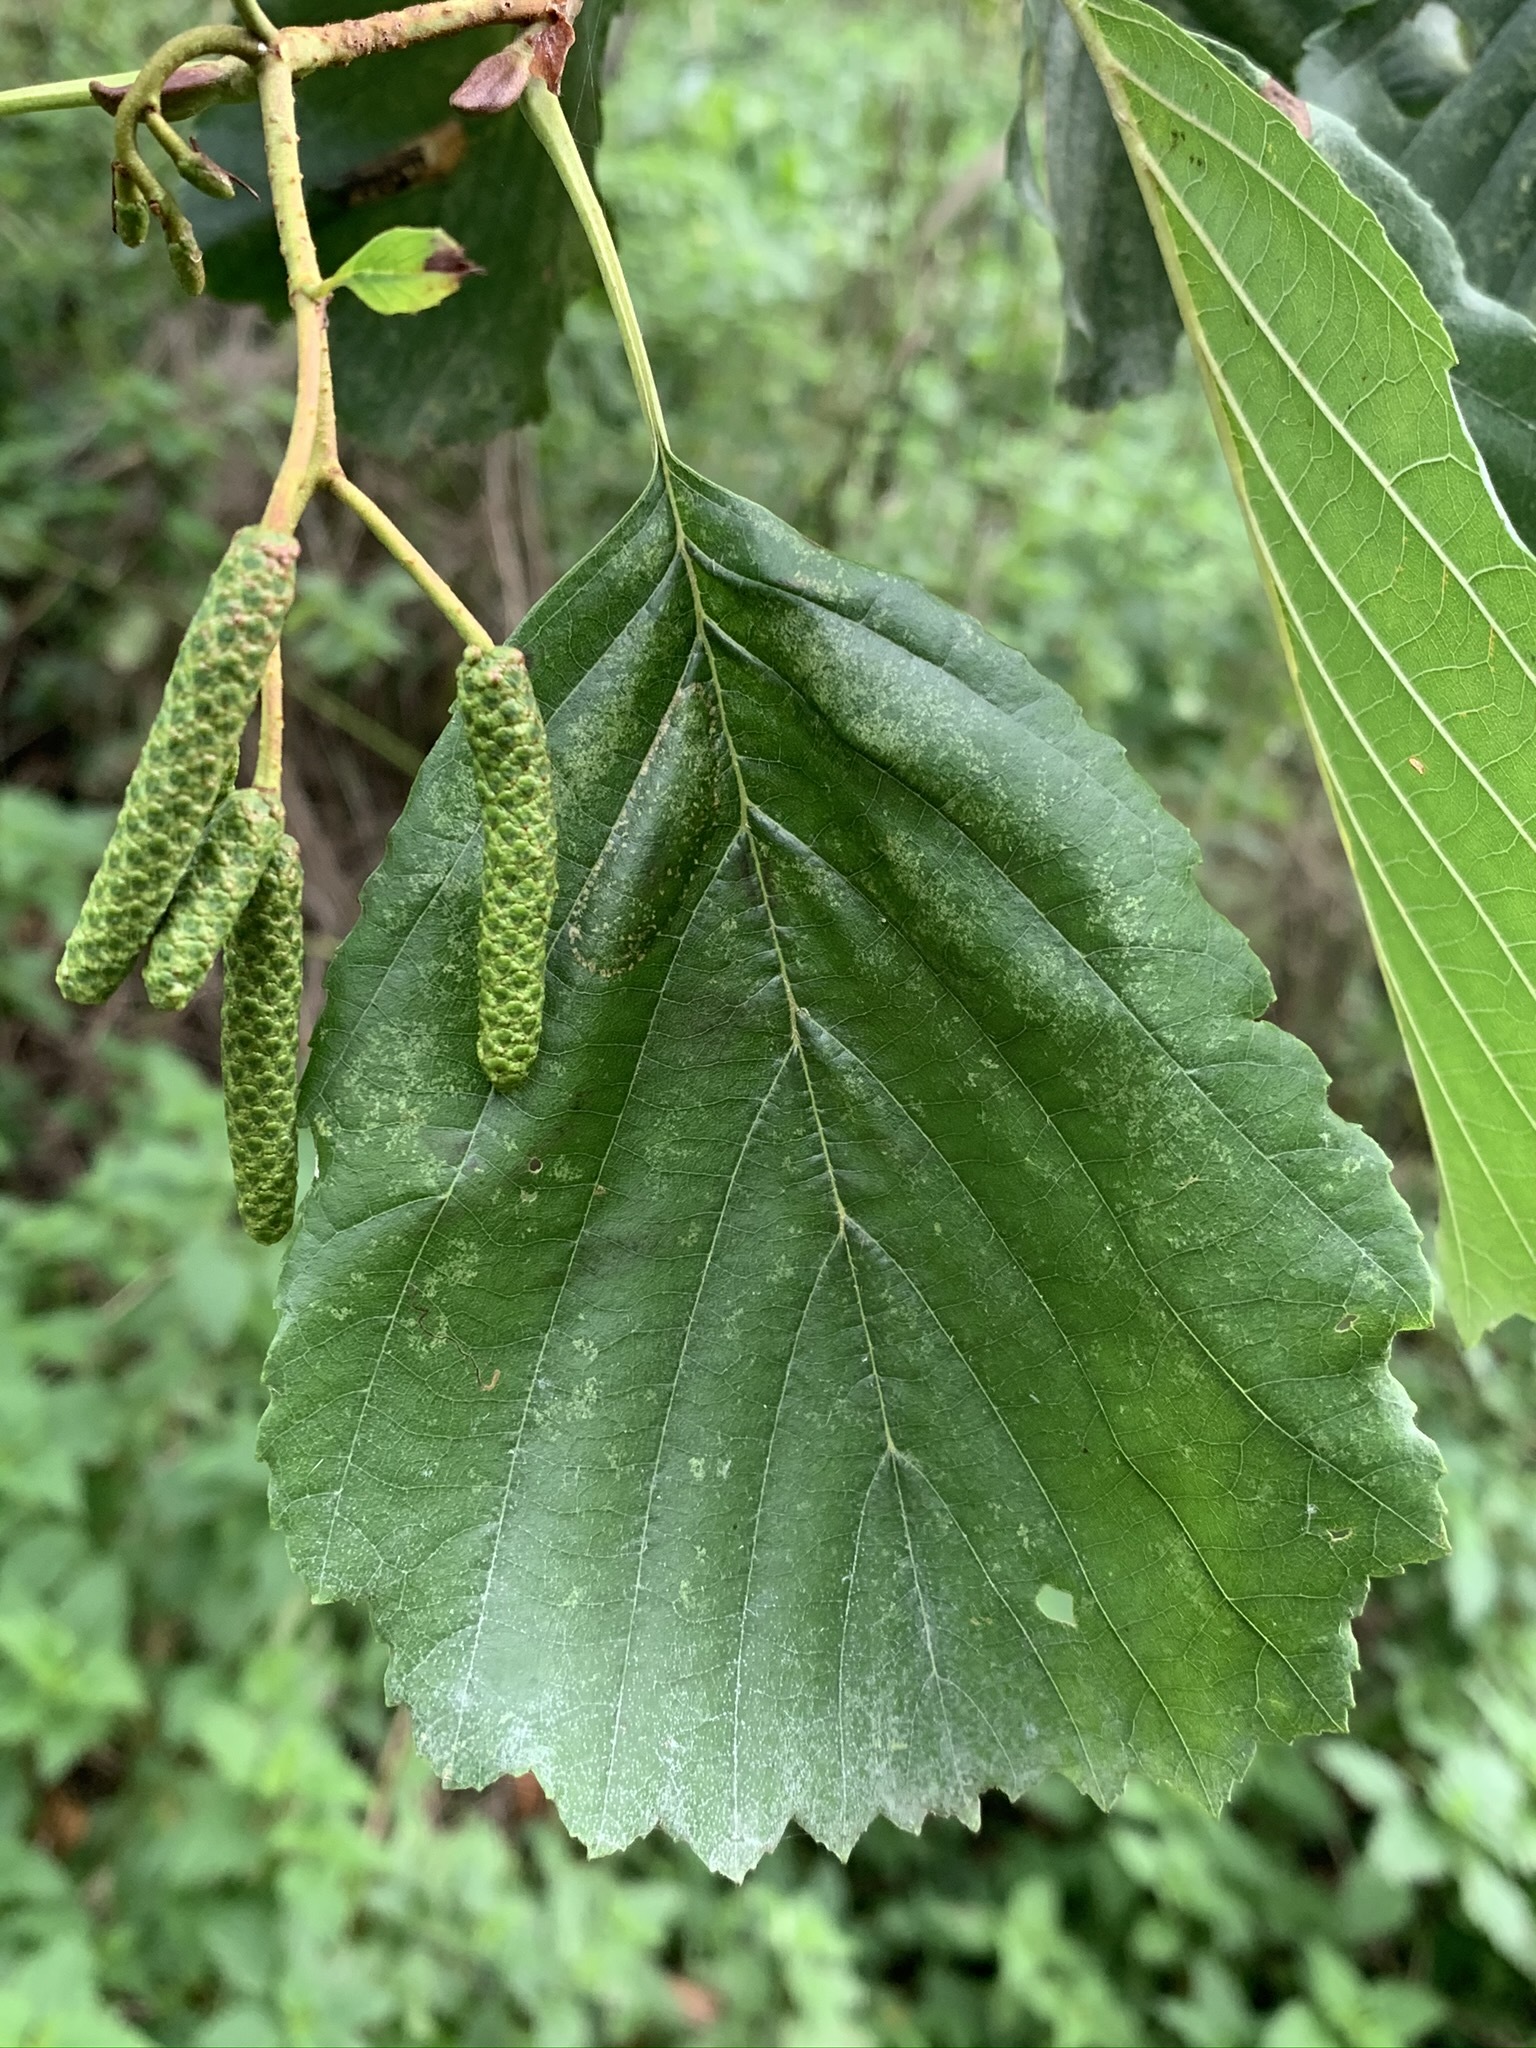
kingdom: Plantae
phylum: Tracheophyta
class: Magnoliopsida
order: Fagales
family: Betulaceae
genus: Alnus
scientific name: Alnus glutinosa
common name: Black alder
